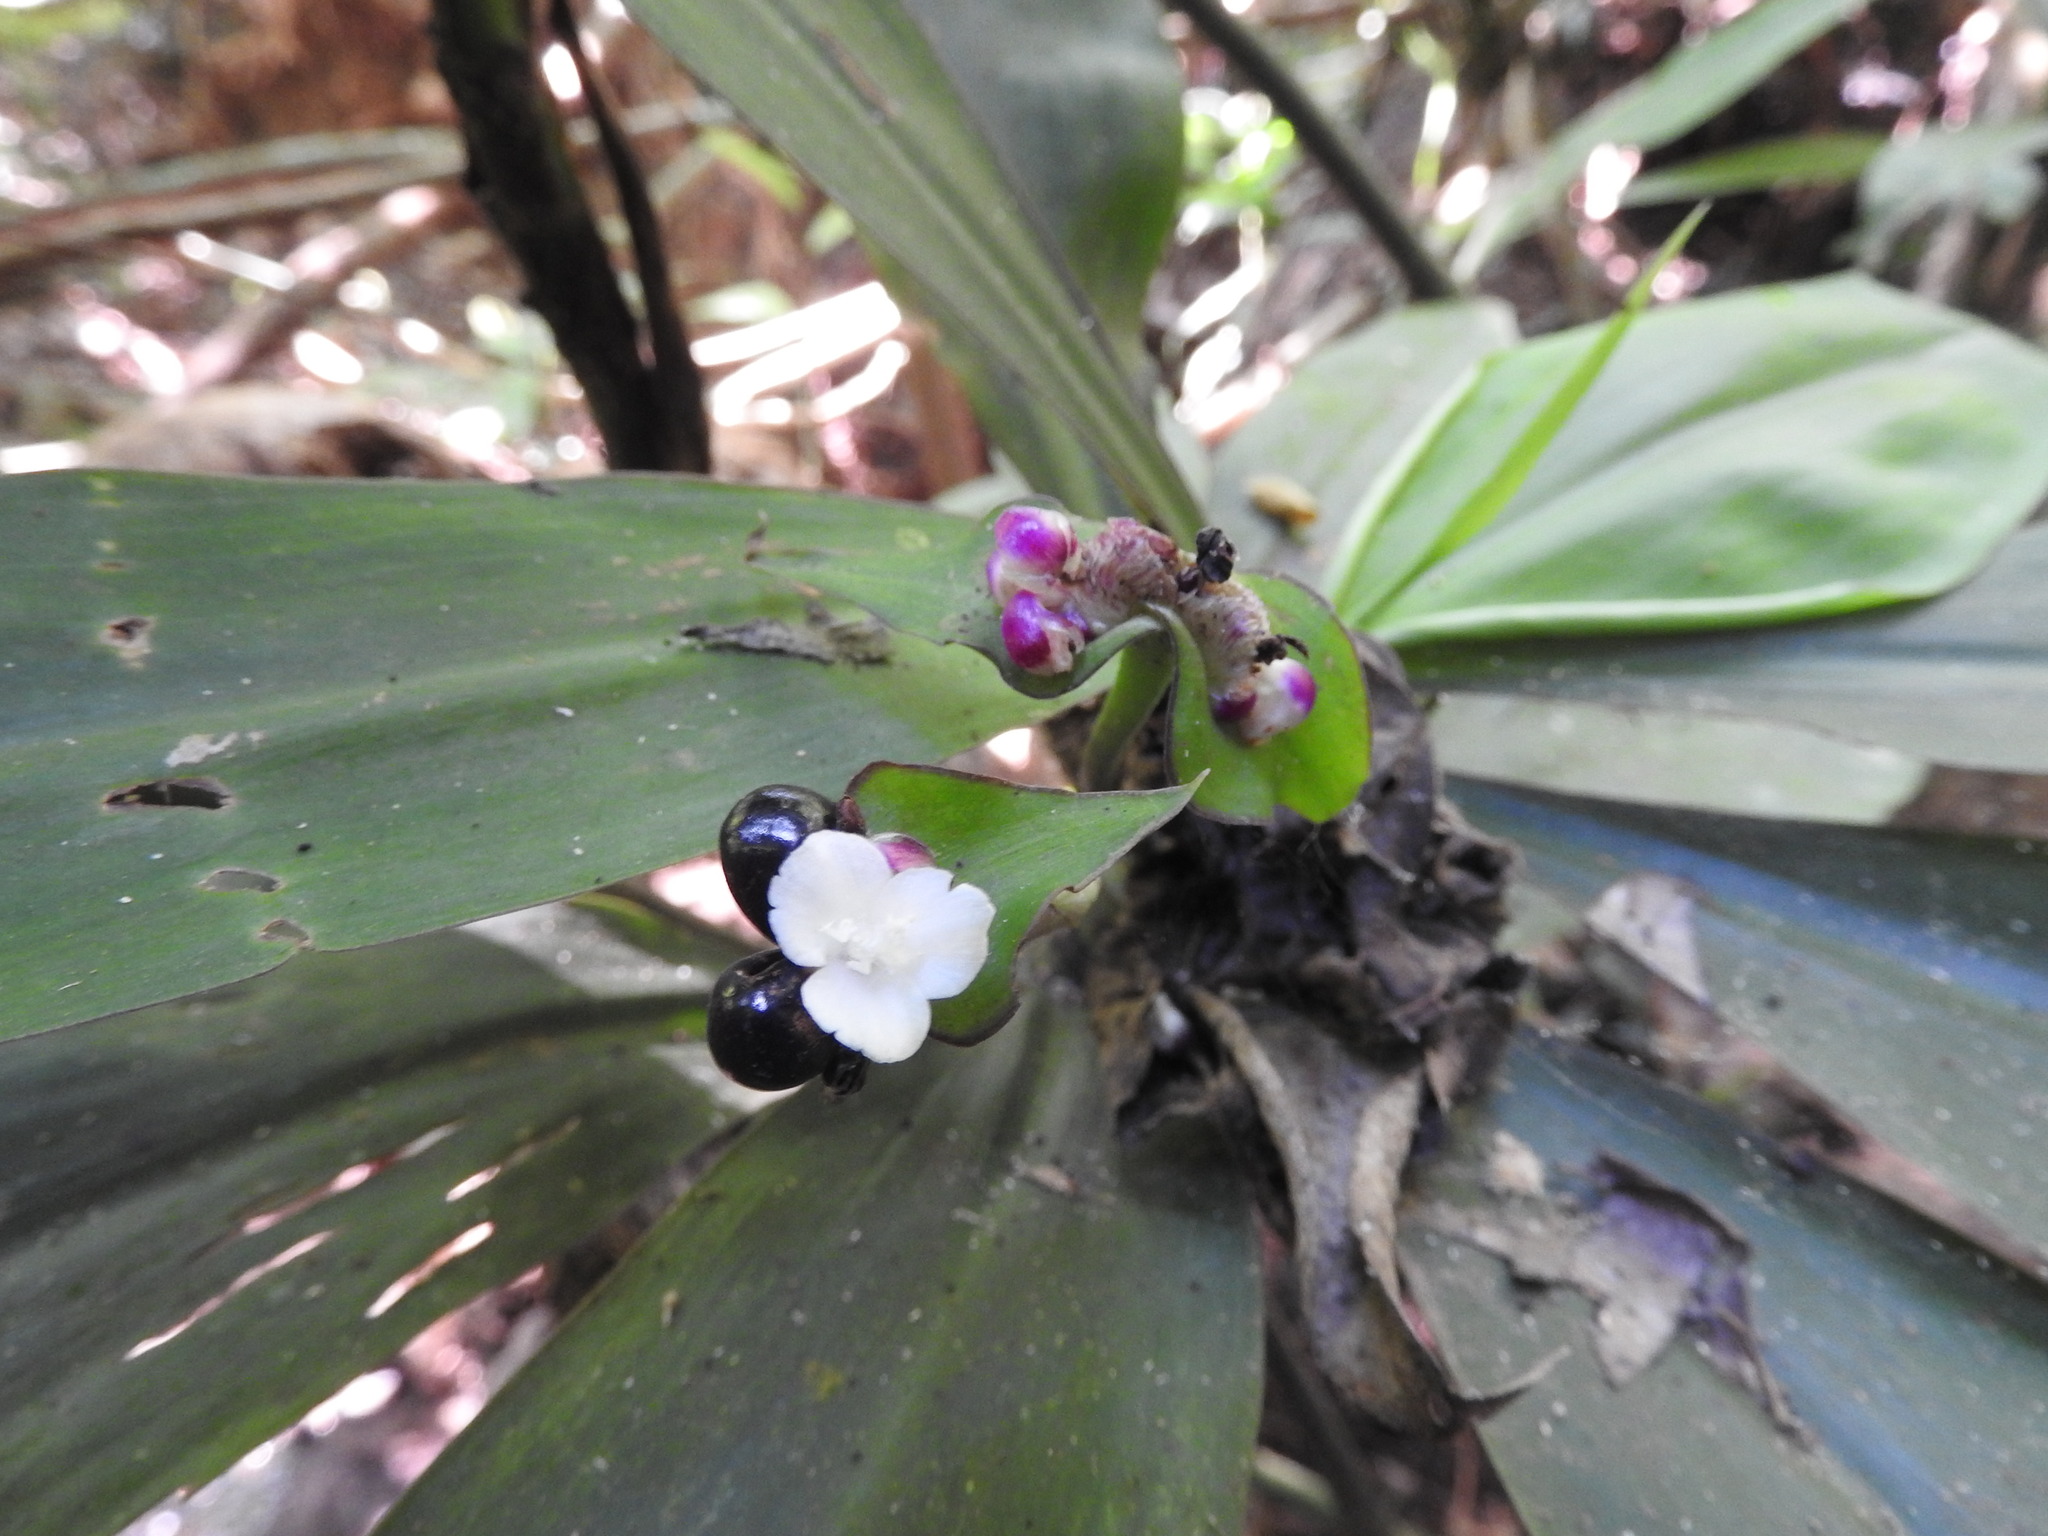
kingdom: Plantae
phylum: Tracheophyta
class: Liliopsida
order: Commelinales
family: Commelinaceae
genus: Tradescantia
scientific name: Tradescantia zanonia
